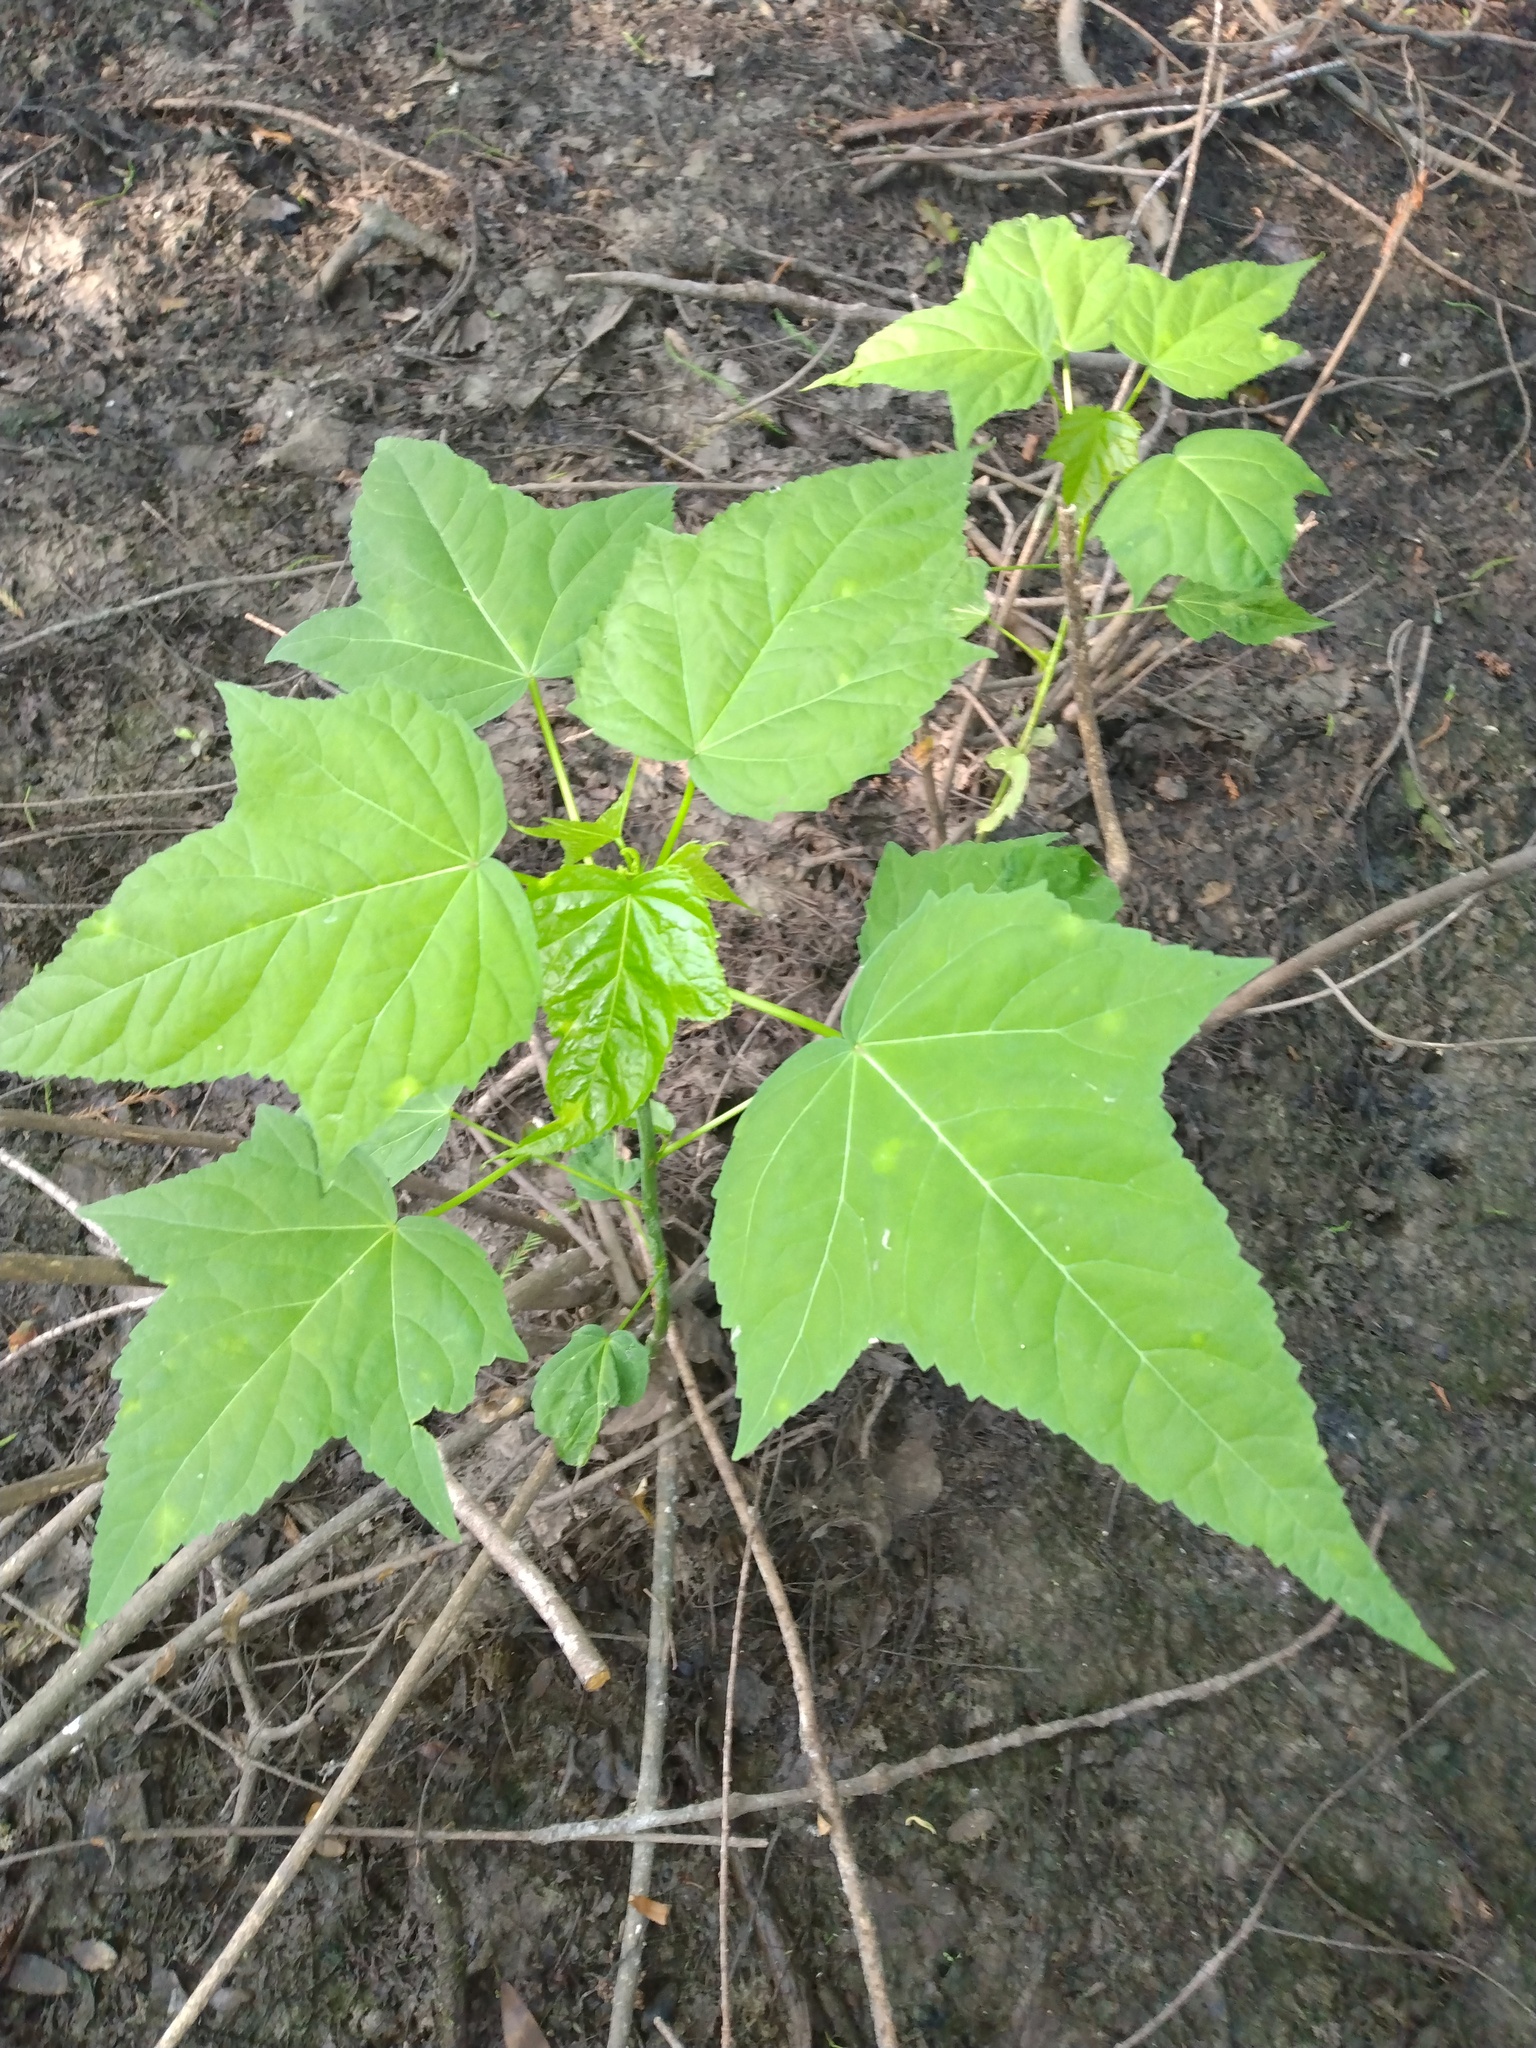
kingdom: Plantae
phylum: Tracheophyta
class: Magnoliopsida
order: Malvales
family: Malvaceae
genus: Hibiscus
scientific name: Hibiscus laevis
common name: Scarlet rose-mallow
